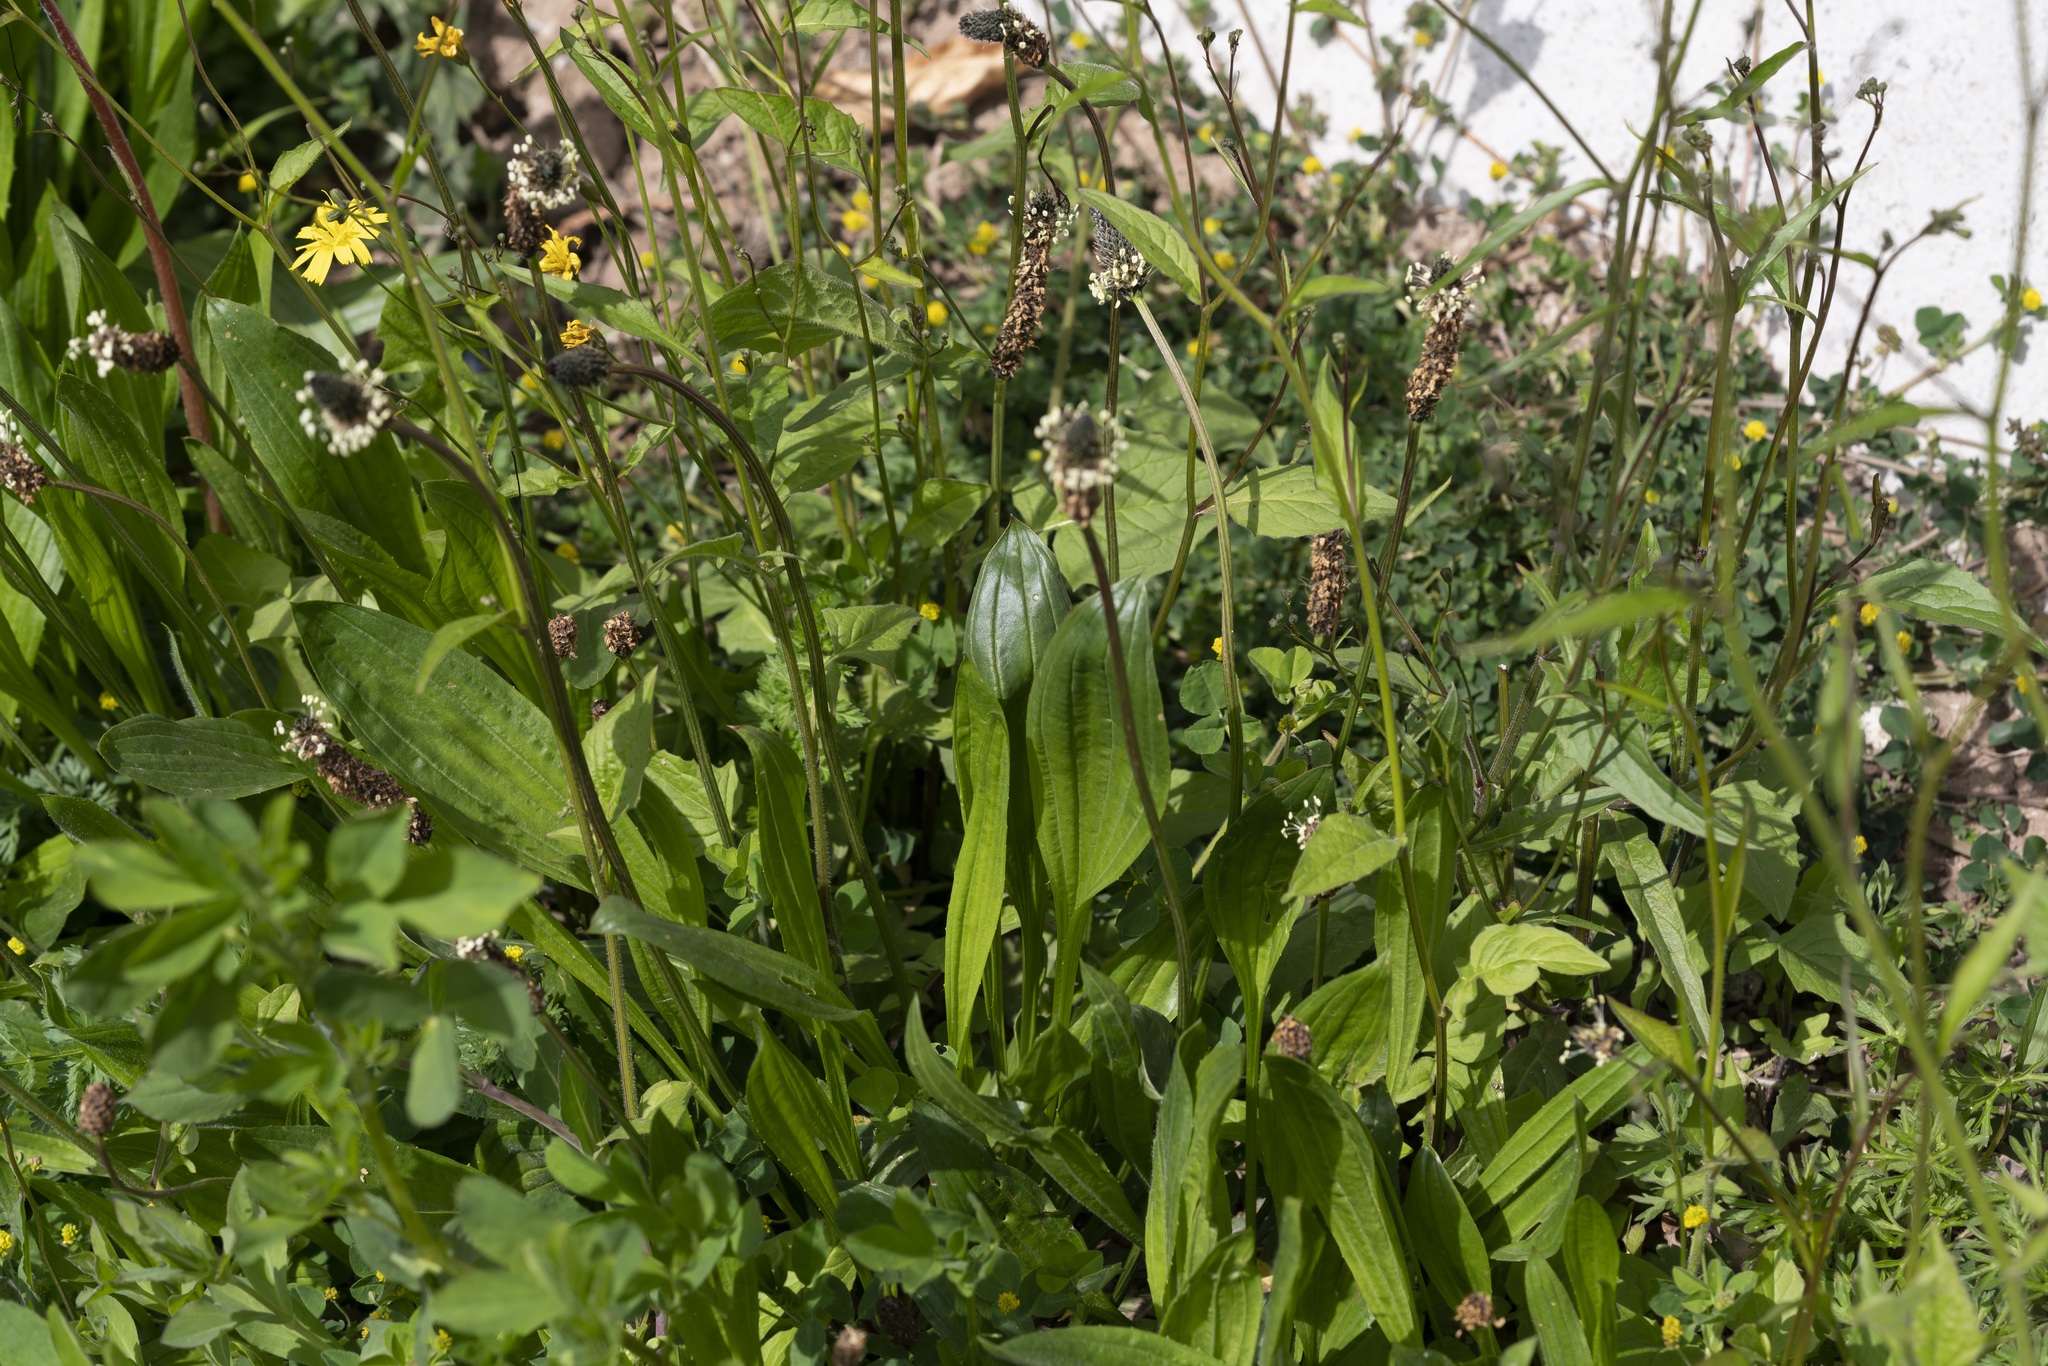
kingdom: Plantae
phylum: Tracheophyta
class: Magnoliopsida
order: Lamiales
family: Plantaginaceae
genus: Plantago
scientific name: Plantago lanceolata
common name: Ribwort plantain
